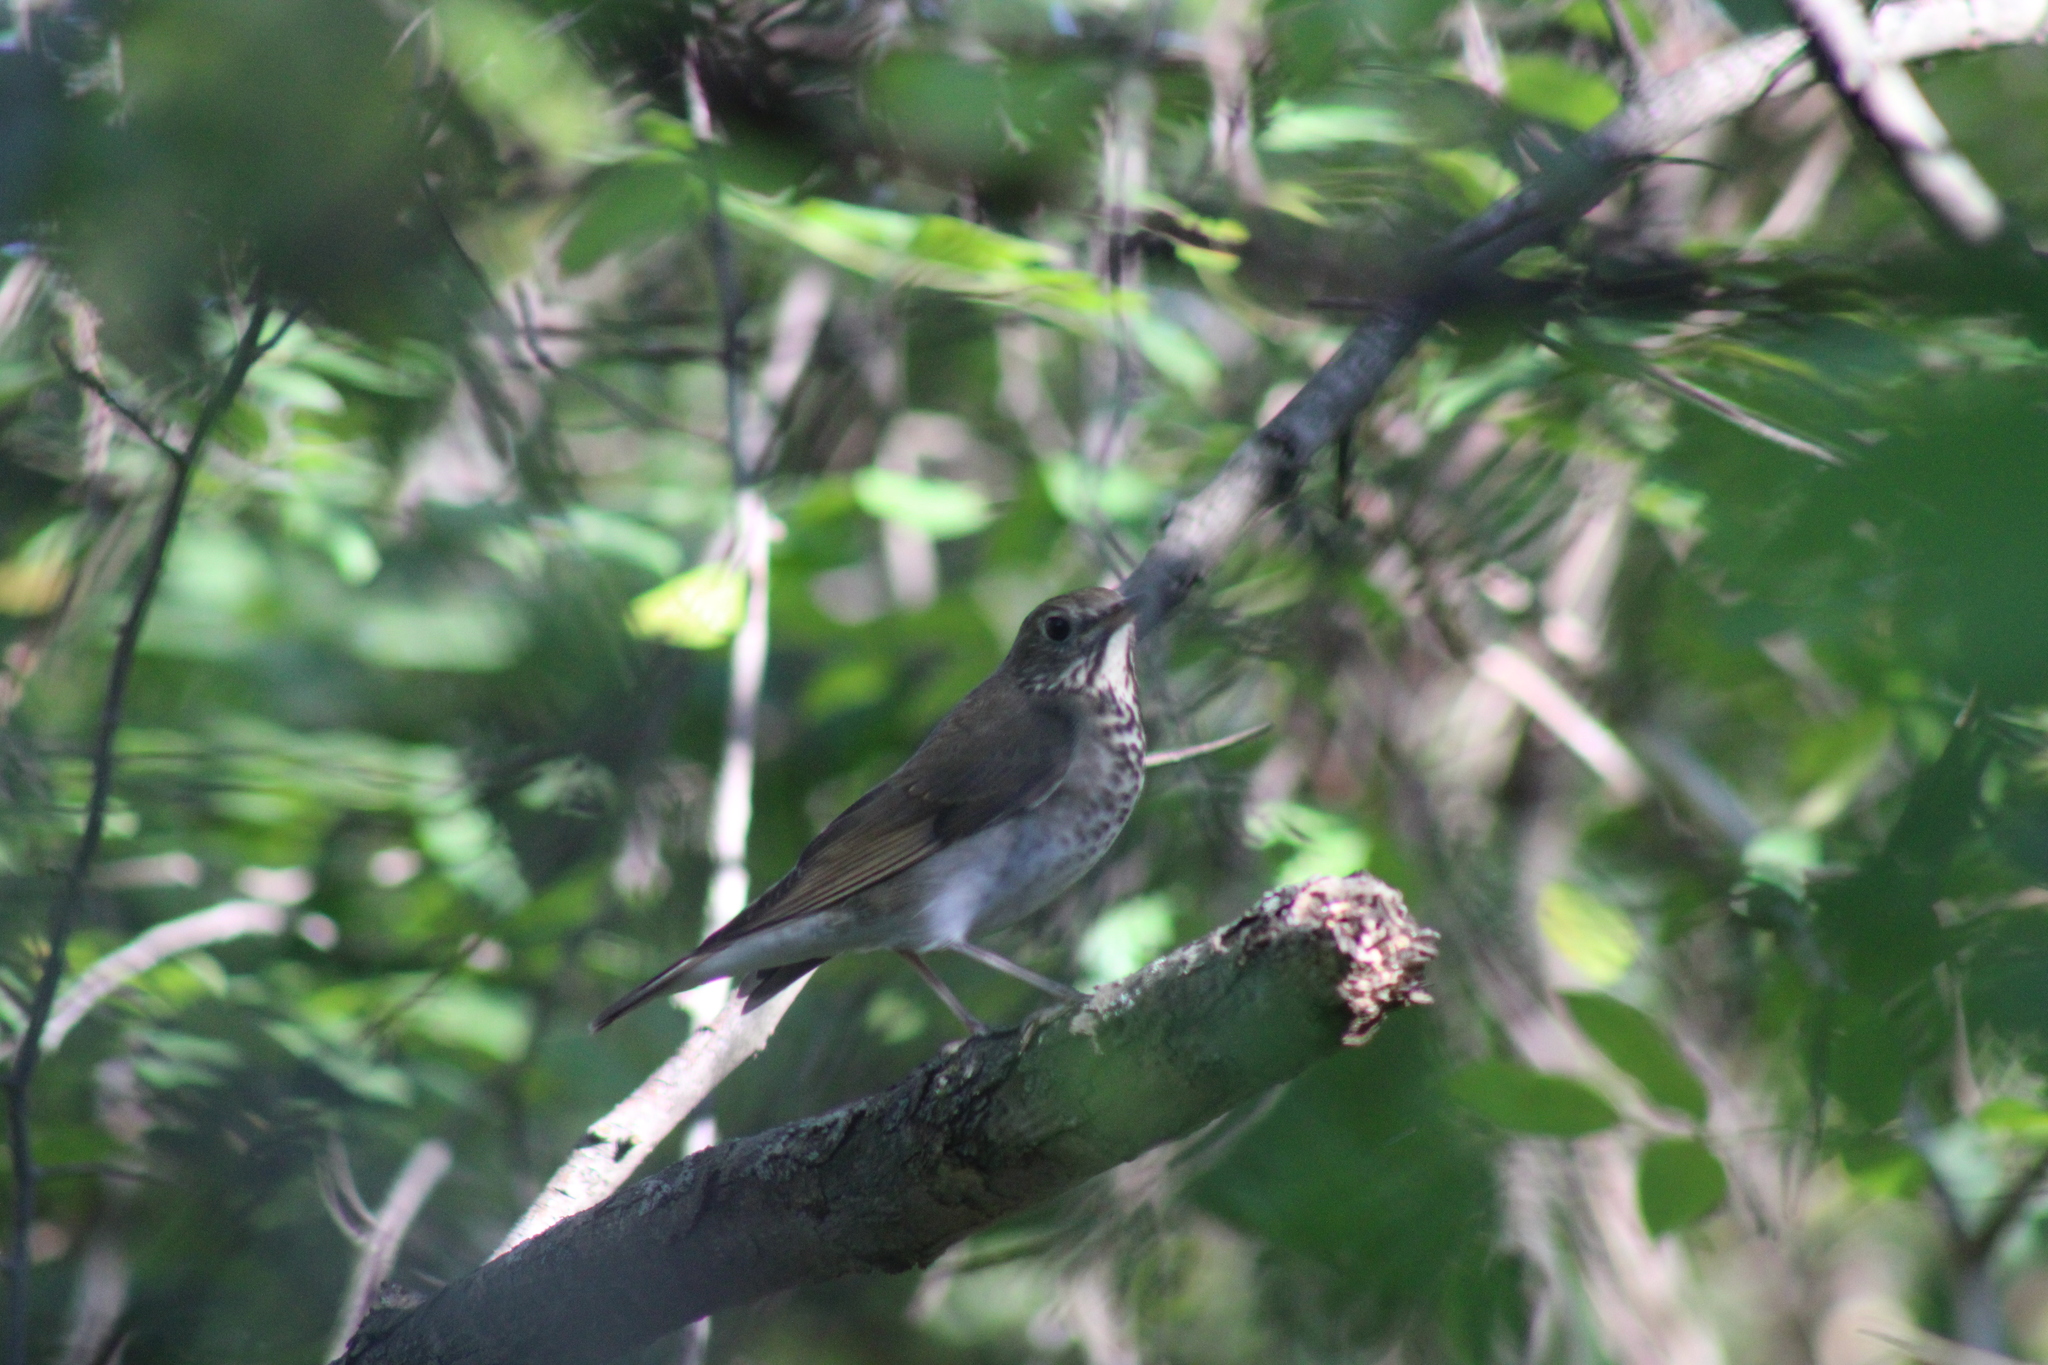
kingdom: Animalia
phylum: Chordata
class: Aves
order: Passeriformes
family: Turdidae
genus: Catharus
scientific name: Catharus minimus
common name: Grey-cheeked thrush
